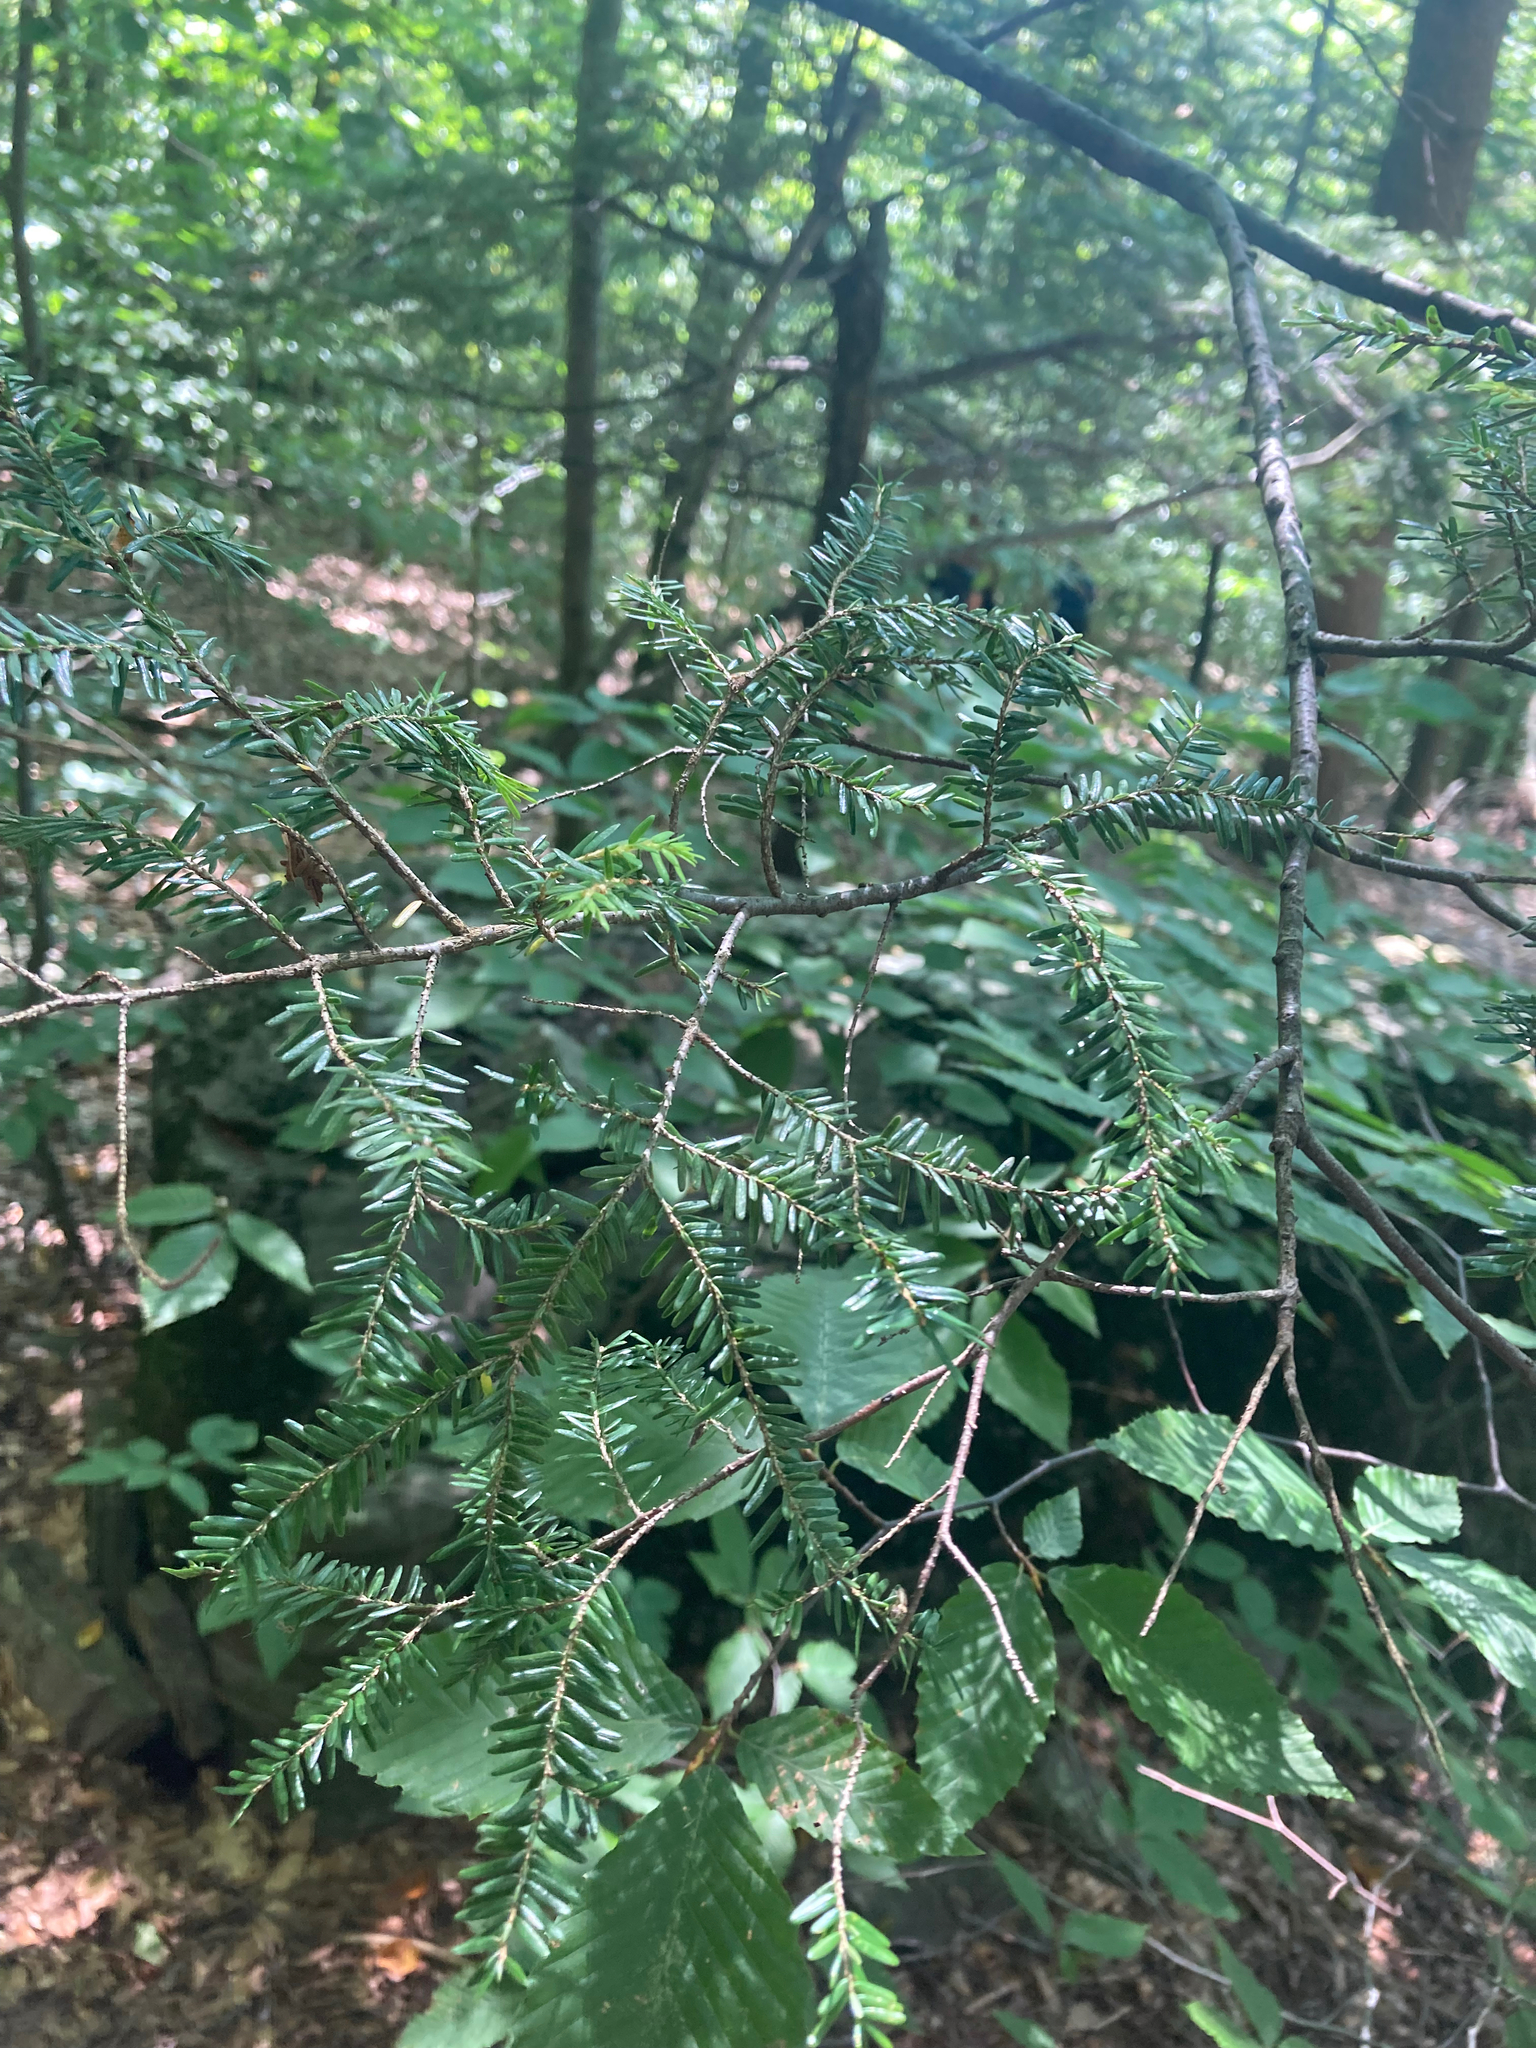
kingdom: Plantae
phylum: Tracheophyta
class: Pinopsida
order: Pinales
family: Pinaceae
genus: Tsuga
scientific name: Tsuga canadensis
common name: Eastern hemlock
